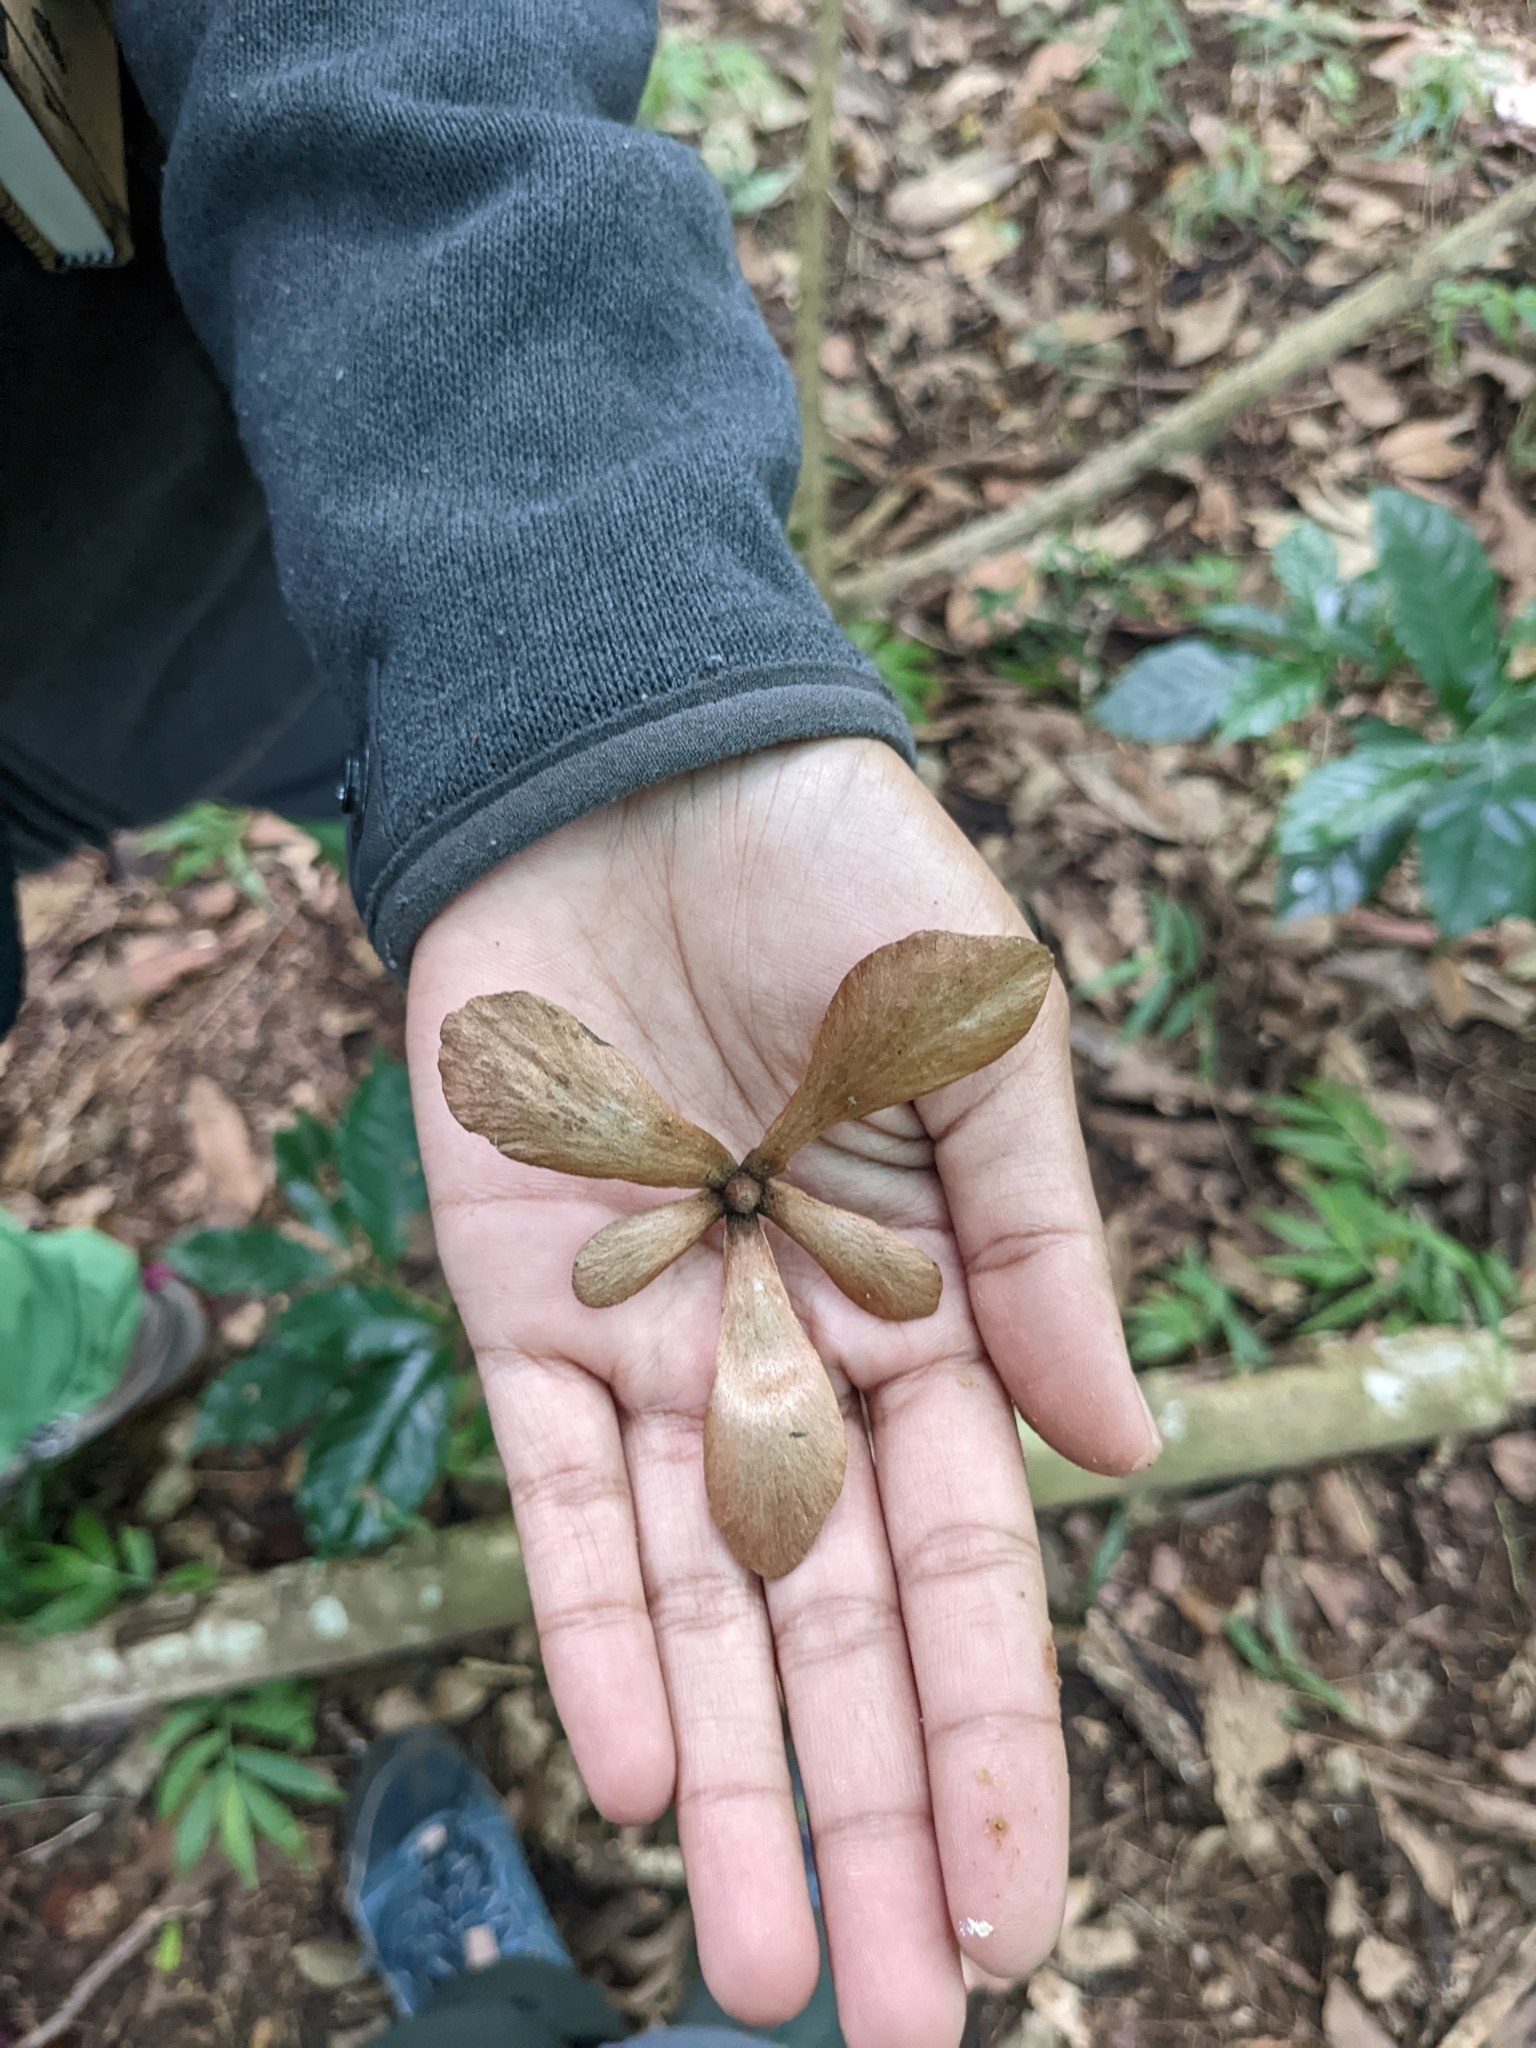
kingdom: Plantae
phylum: Tracheophyta
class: Magnoliopsida
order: Caryophyllales
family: Ancistrocladaceae
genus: Ancistrocladus
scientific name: Ancistrocladus heyneanus
